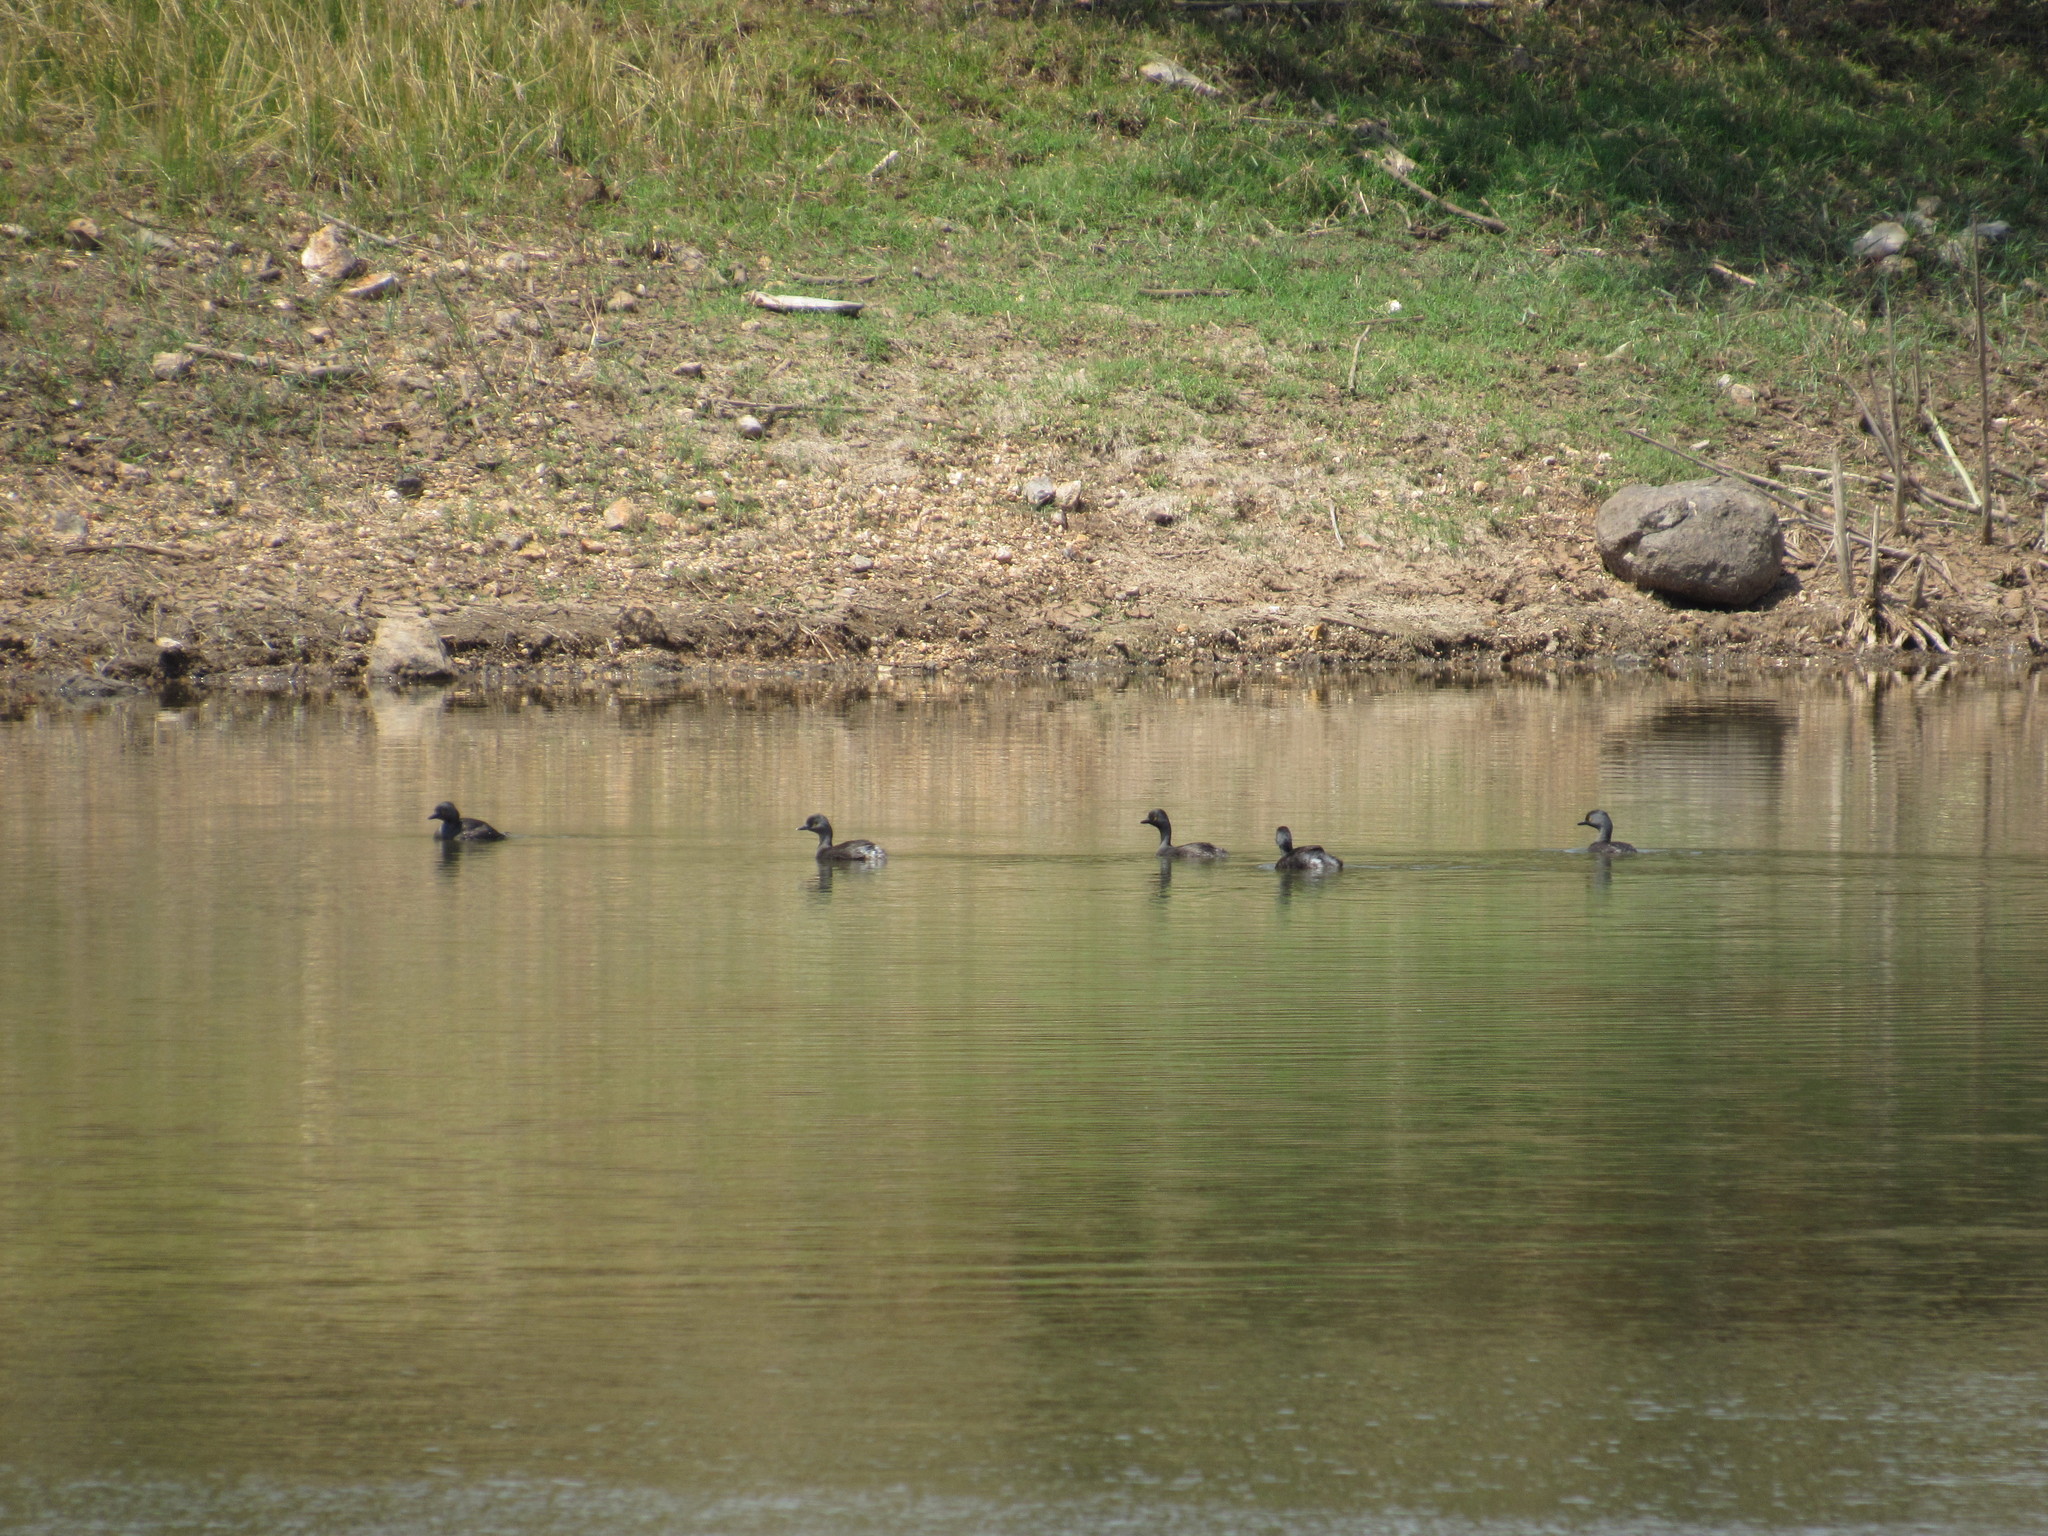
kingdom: Animalia
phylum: Chordata
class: Aves
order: Podicipediformes
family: Podicipedidae
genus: Tachybaptus
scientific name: Tachybaptus dominicus
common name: Least grebe
